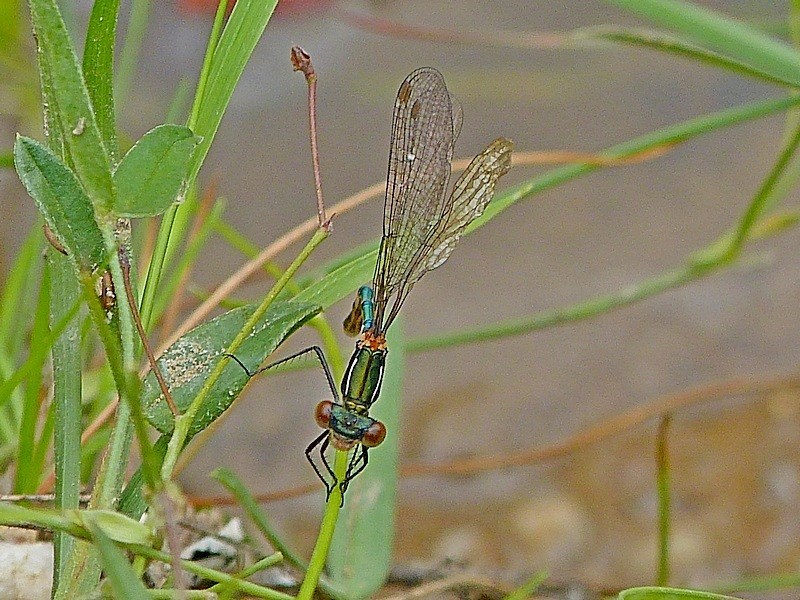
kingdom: Animalia
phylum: Arthropoda
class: Insecta
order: Odonata
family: Lestidae
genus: Austrolestes
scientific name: Austrolestes psyche
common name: Cup ringtail
